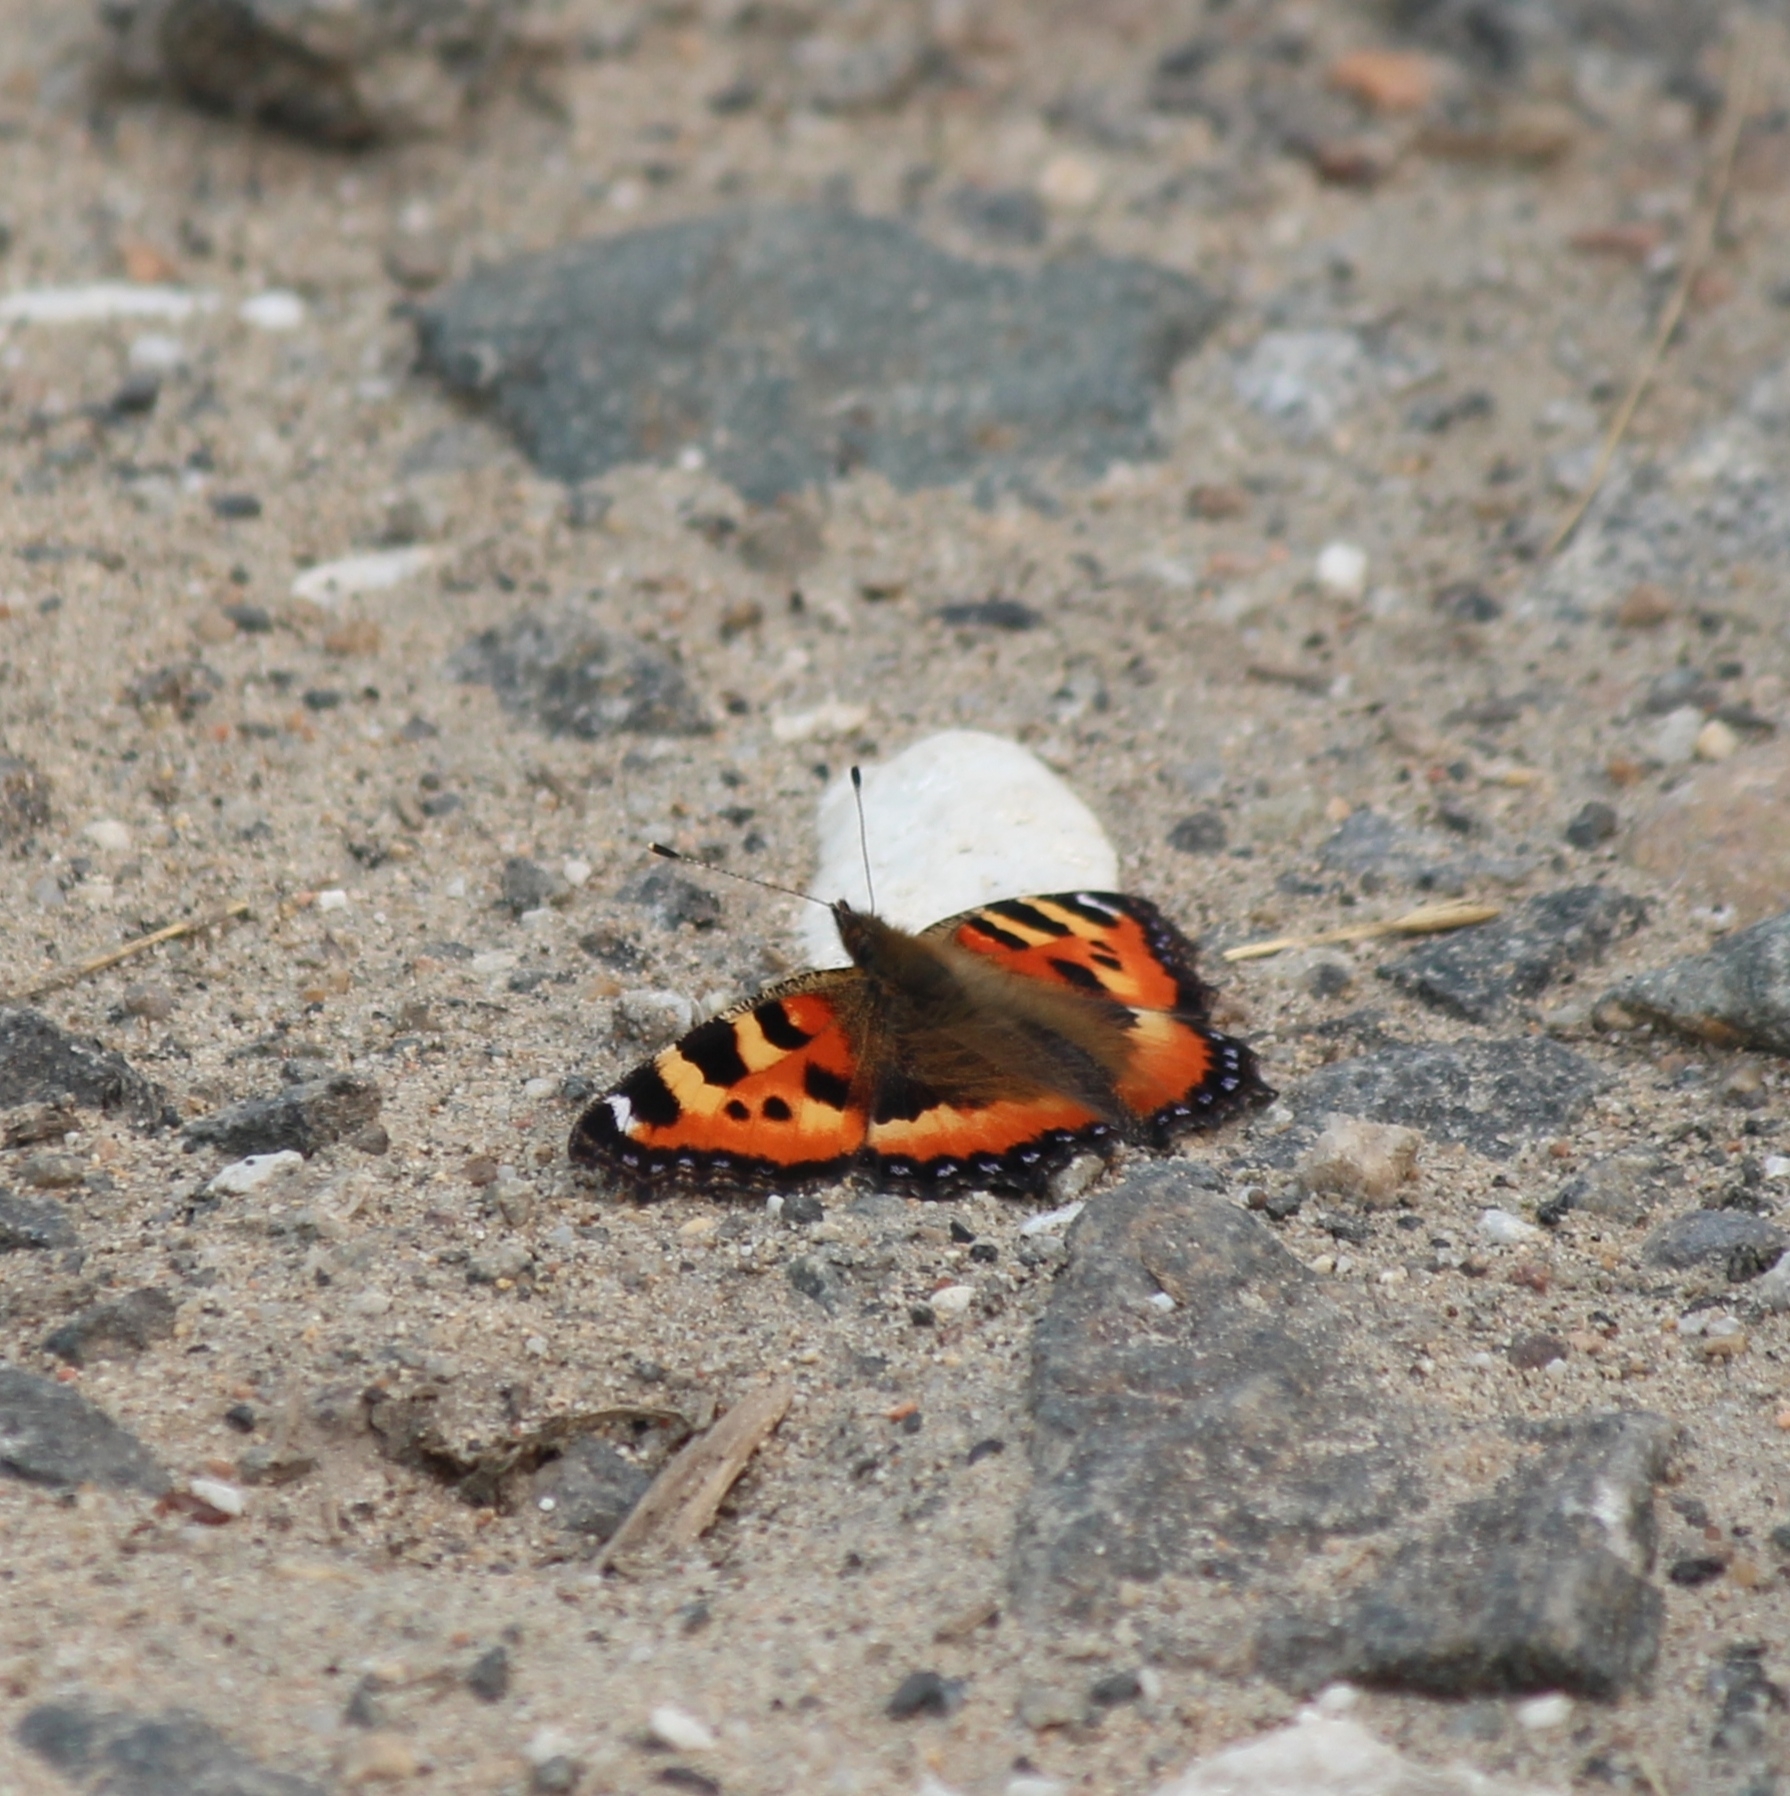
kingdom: Animalia
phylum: Arthropoda
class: Insecta
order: Lepidoptera
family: Nymphalidae
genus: Aglais
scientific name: Aglais urticae
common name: Small tortoiseshell
